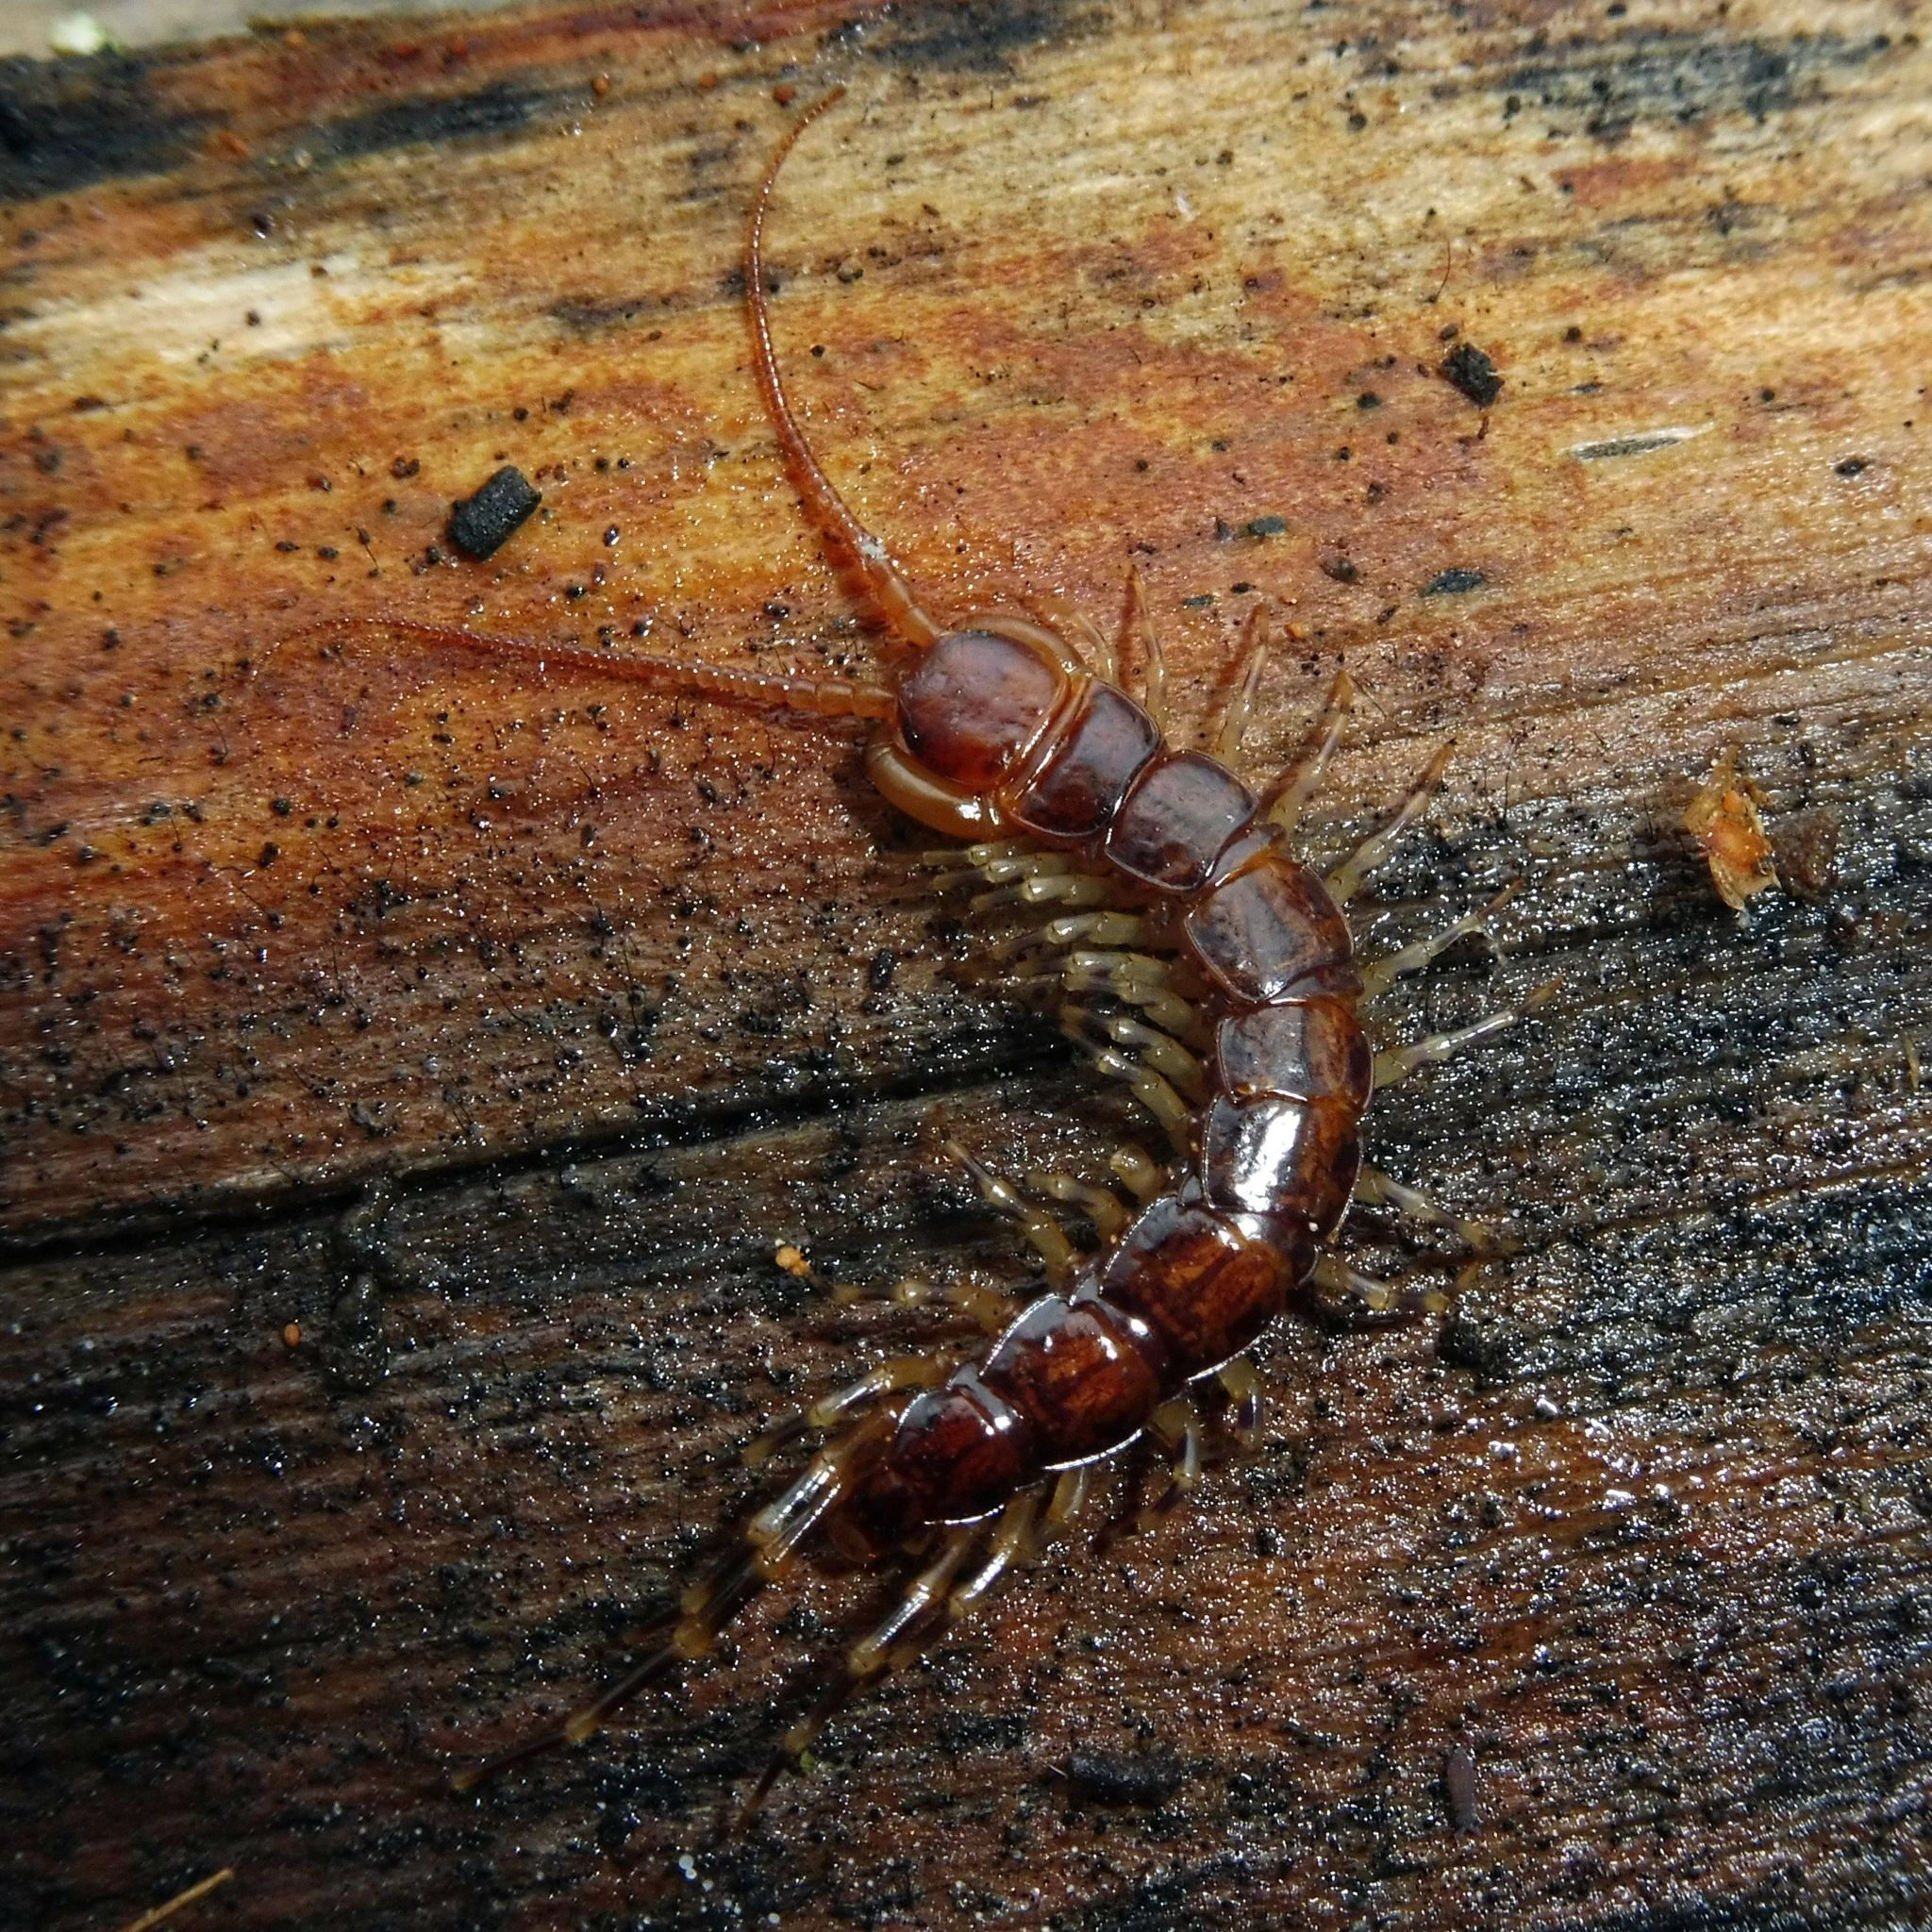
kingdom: Animalia
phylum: Arthropoda
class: Chilopoda
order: Lithobiomorpha
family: Lithobiidae
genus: Lithobius
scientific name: Lithobius variegatus
